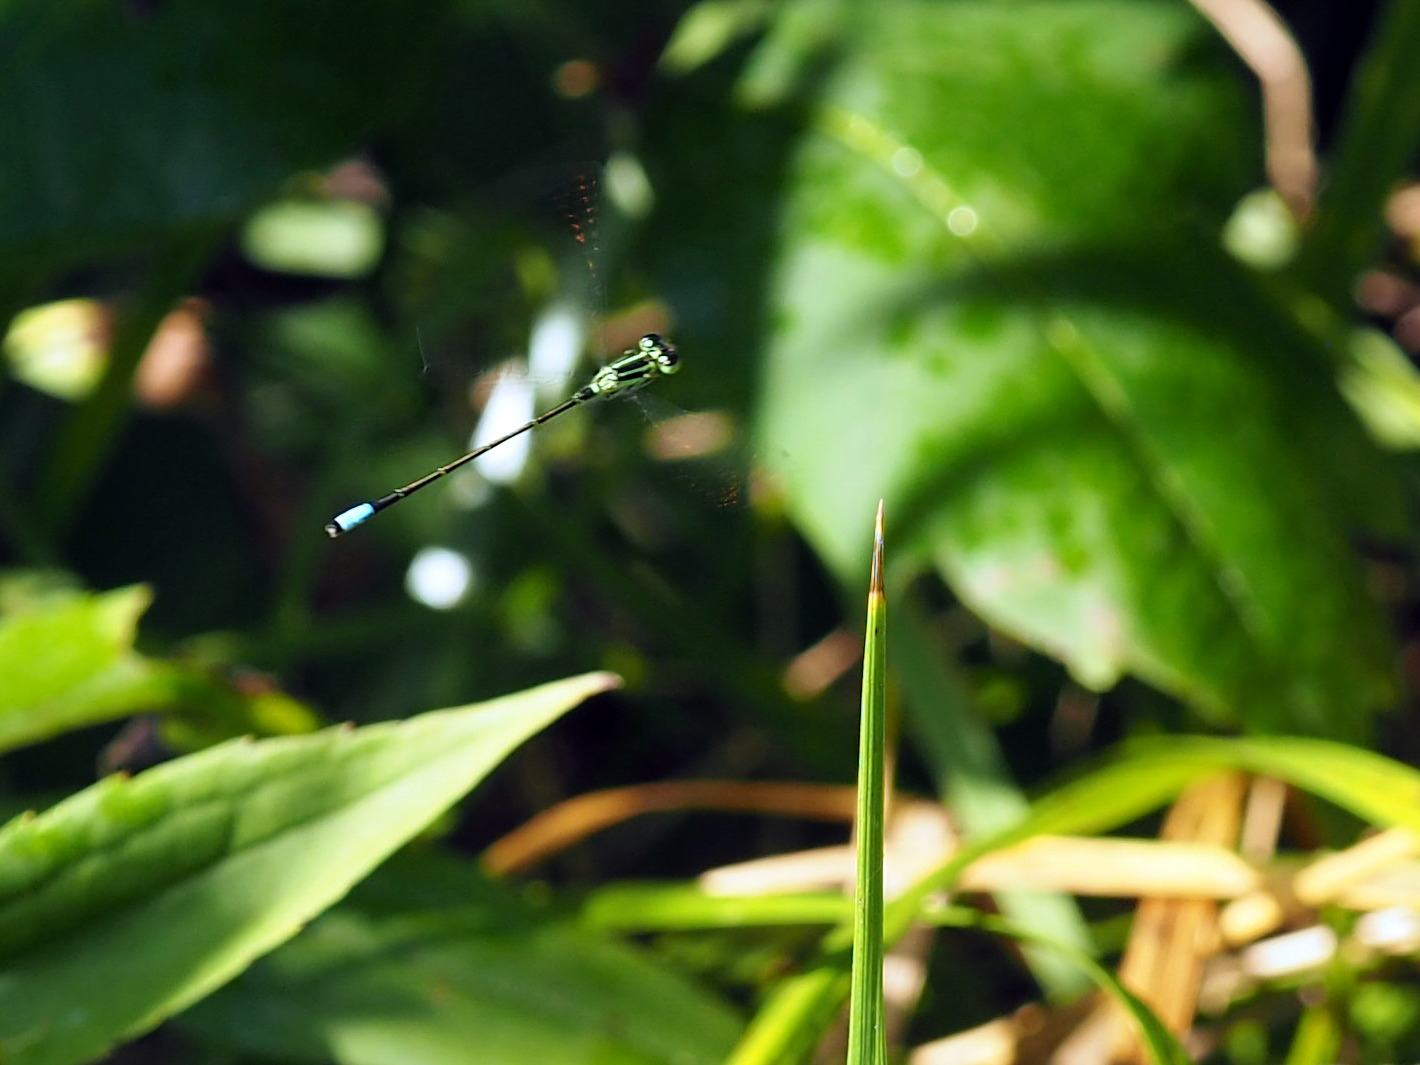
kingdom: Animalia
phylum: Arthropoda
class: Insecta
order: Odonata
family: Coenagrionidae
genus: Ischnura
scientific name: Ischnura verticalis
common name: Eastern forktail
